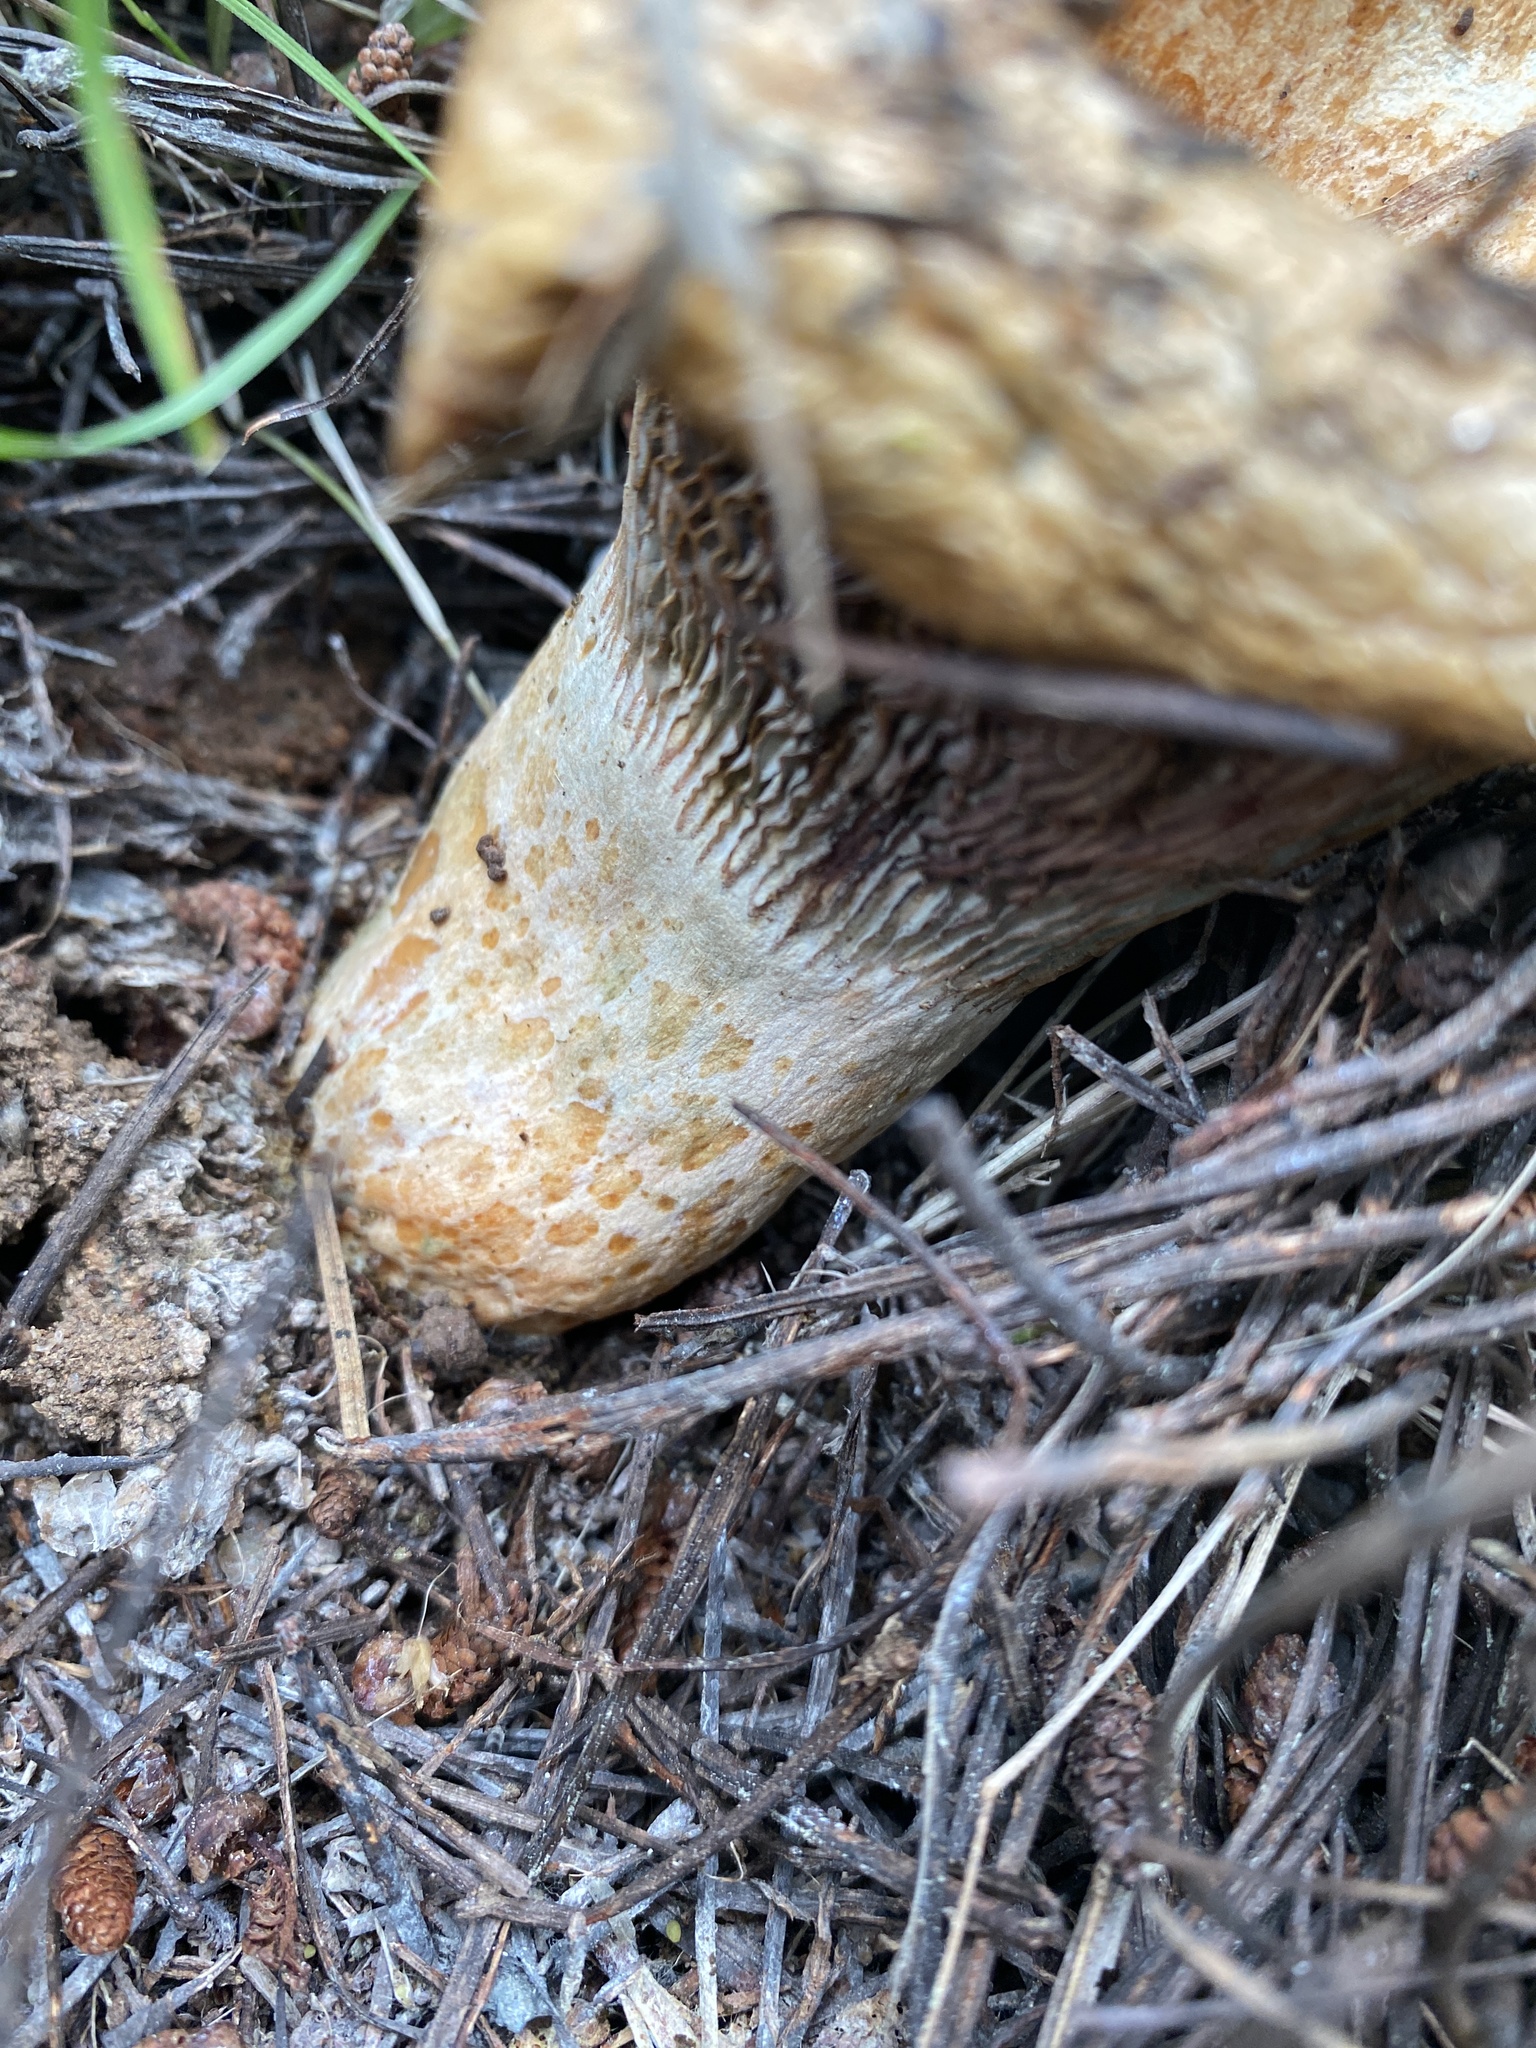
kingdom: Fungi
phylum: Basidiomycota
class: Agaricomycetes
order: Russulales
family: Russulaceae
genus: Lactarius
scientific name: Lactarius deliciosus
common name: Saffron milk-cap
